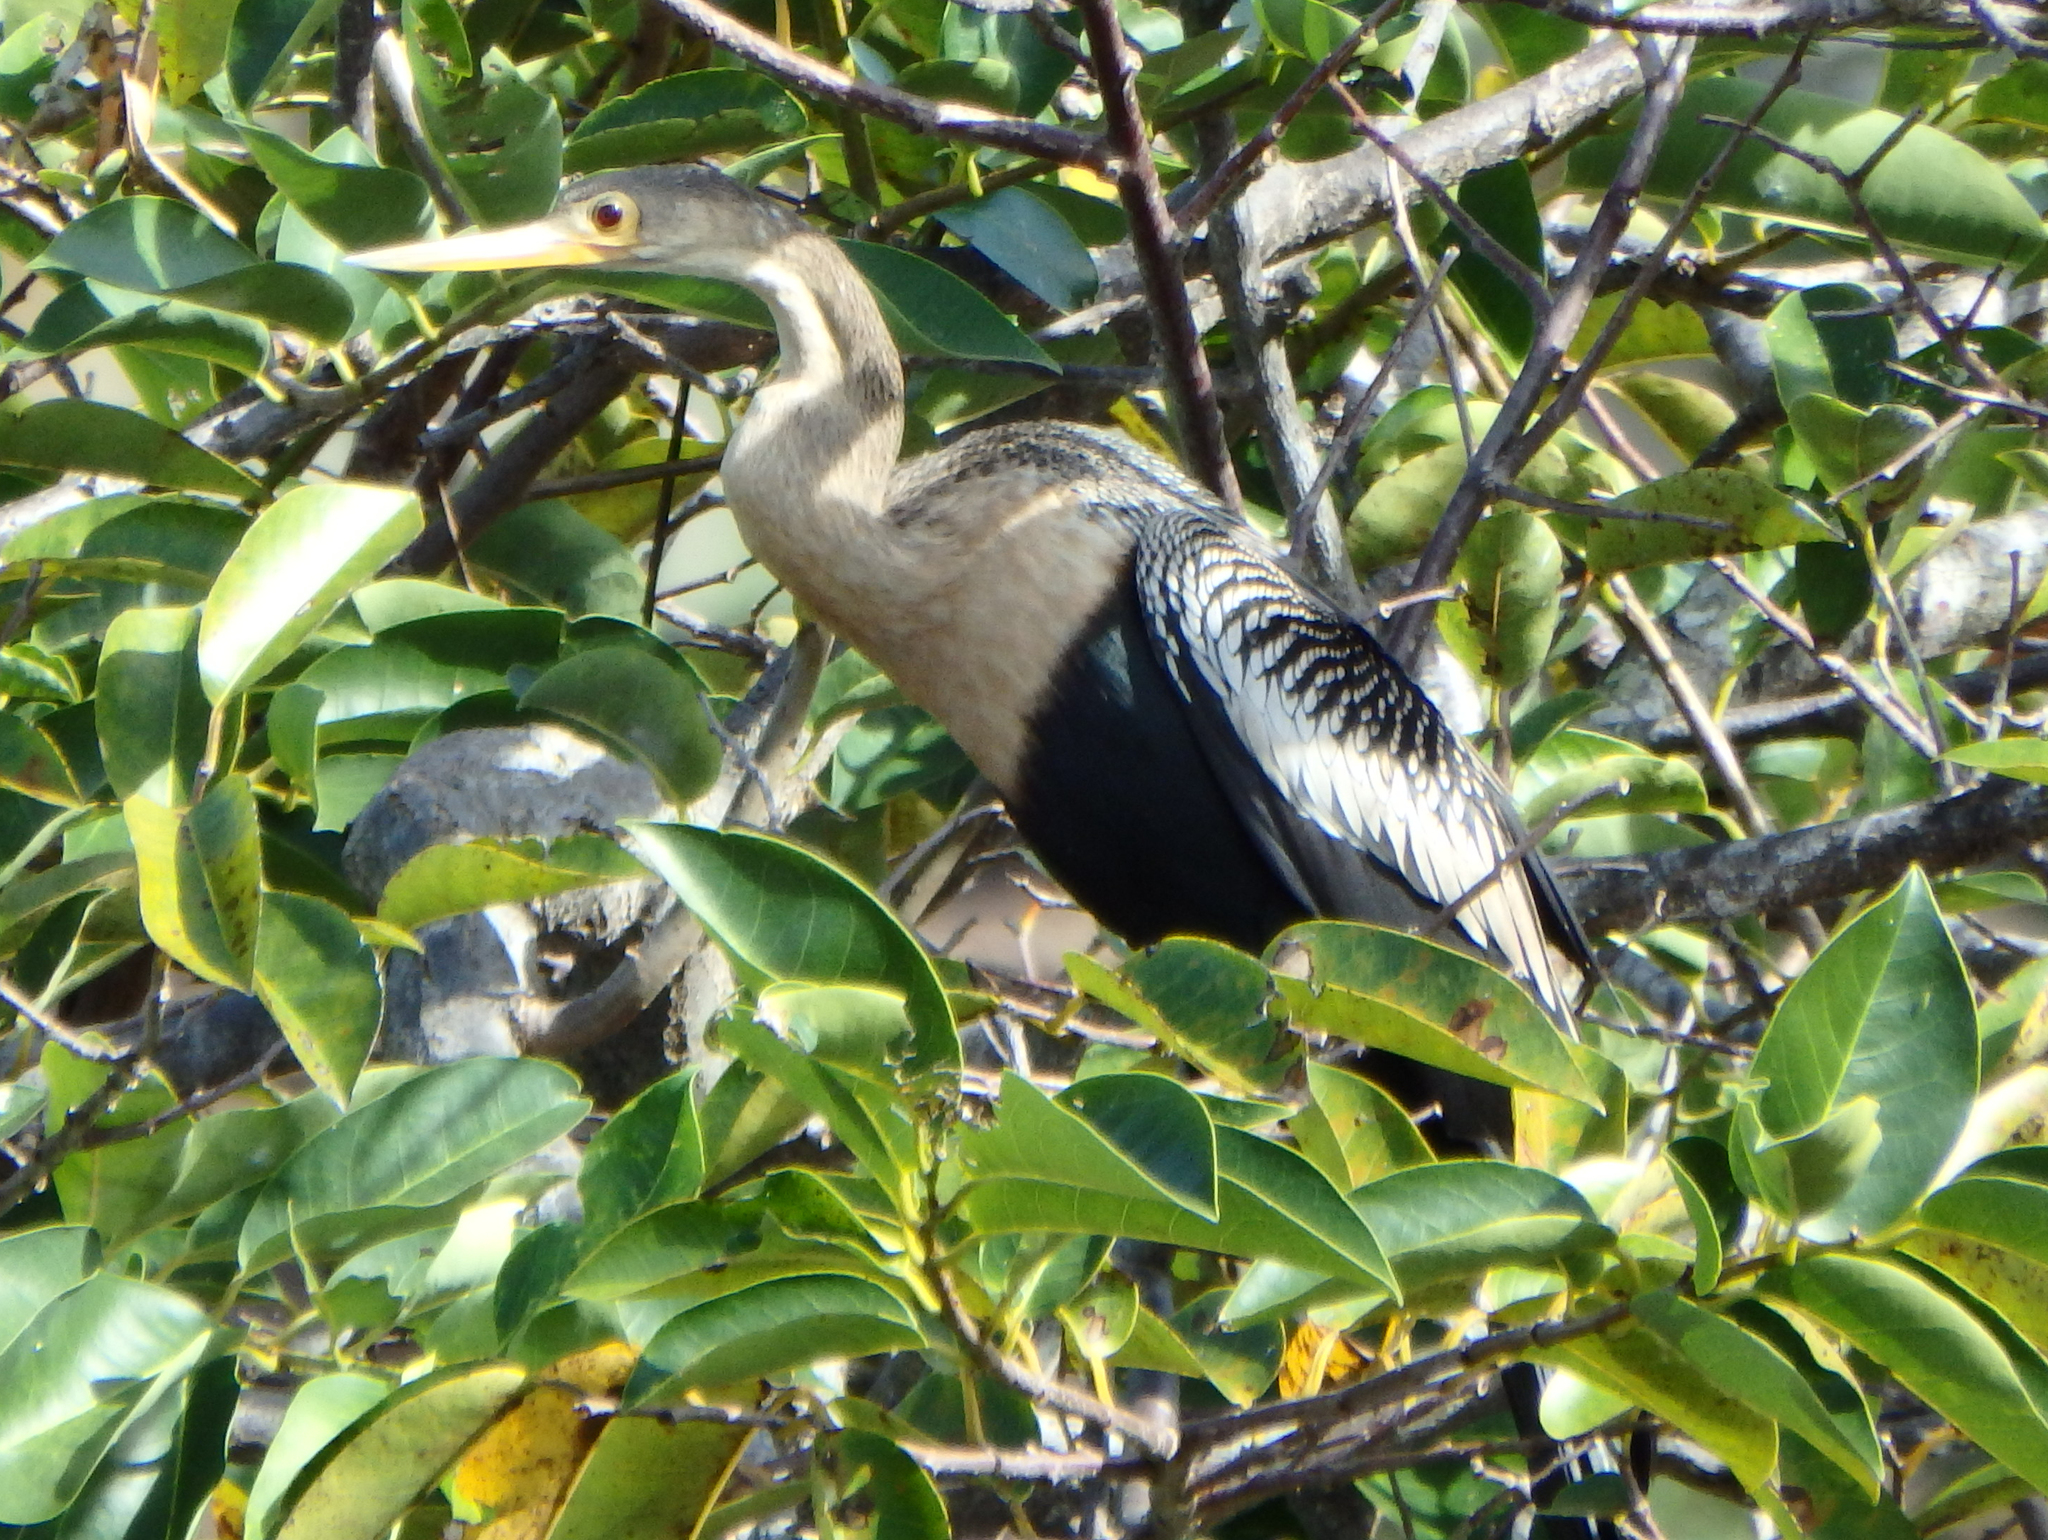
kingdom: Animalia
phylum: Chordata
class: Aves
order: Suliformes
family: Anhingidae
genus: Anhinga
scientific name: Anhinga anhinga
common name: Anhinga
